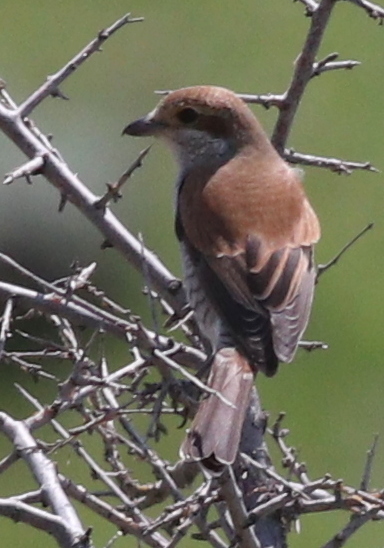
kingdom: Animalia
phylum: Chordata
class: Aves
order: Passeriformes
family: Laniidae
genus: Lanius
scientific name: Lanius collurio
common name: Red-backed shrike
